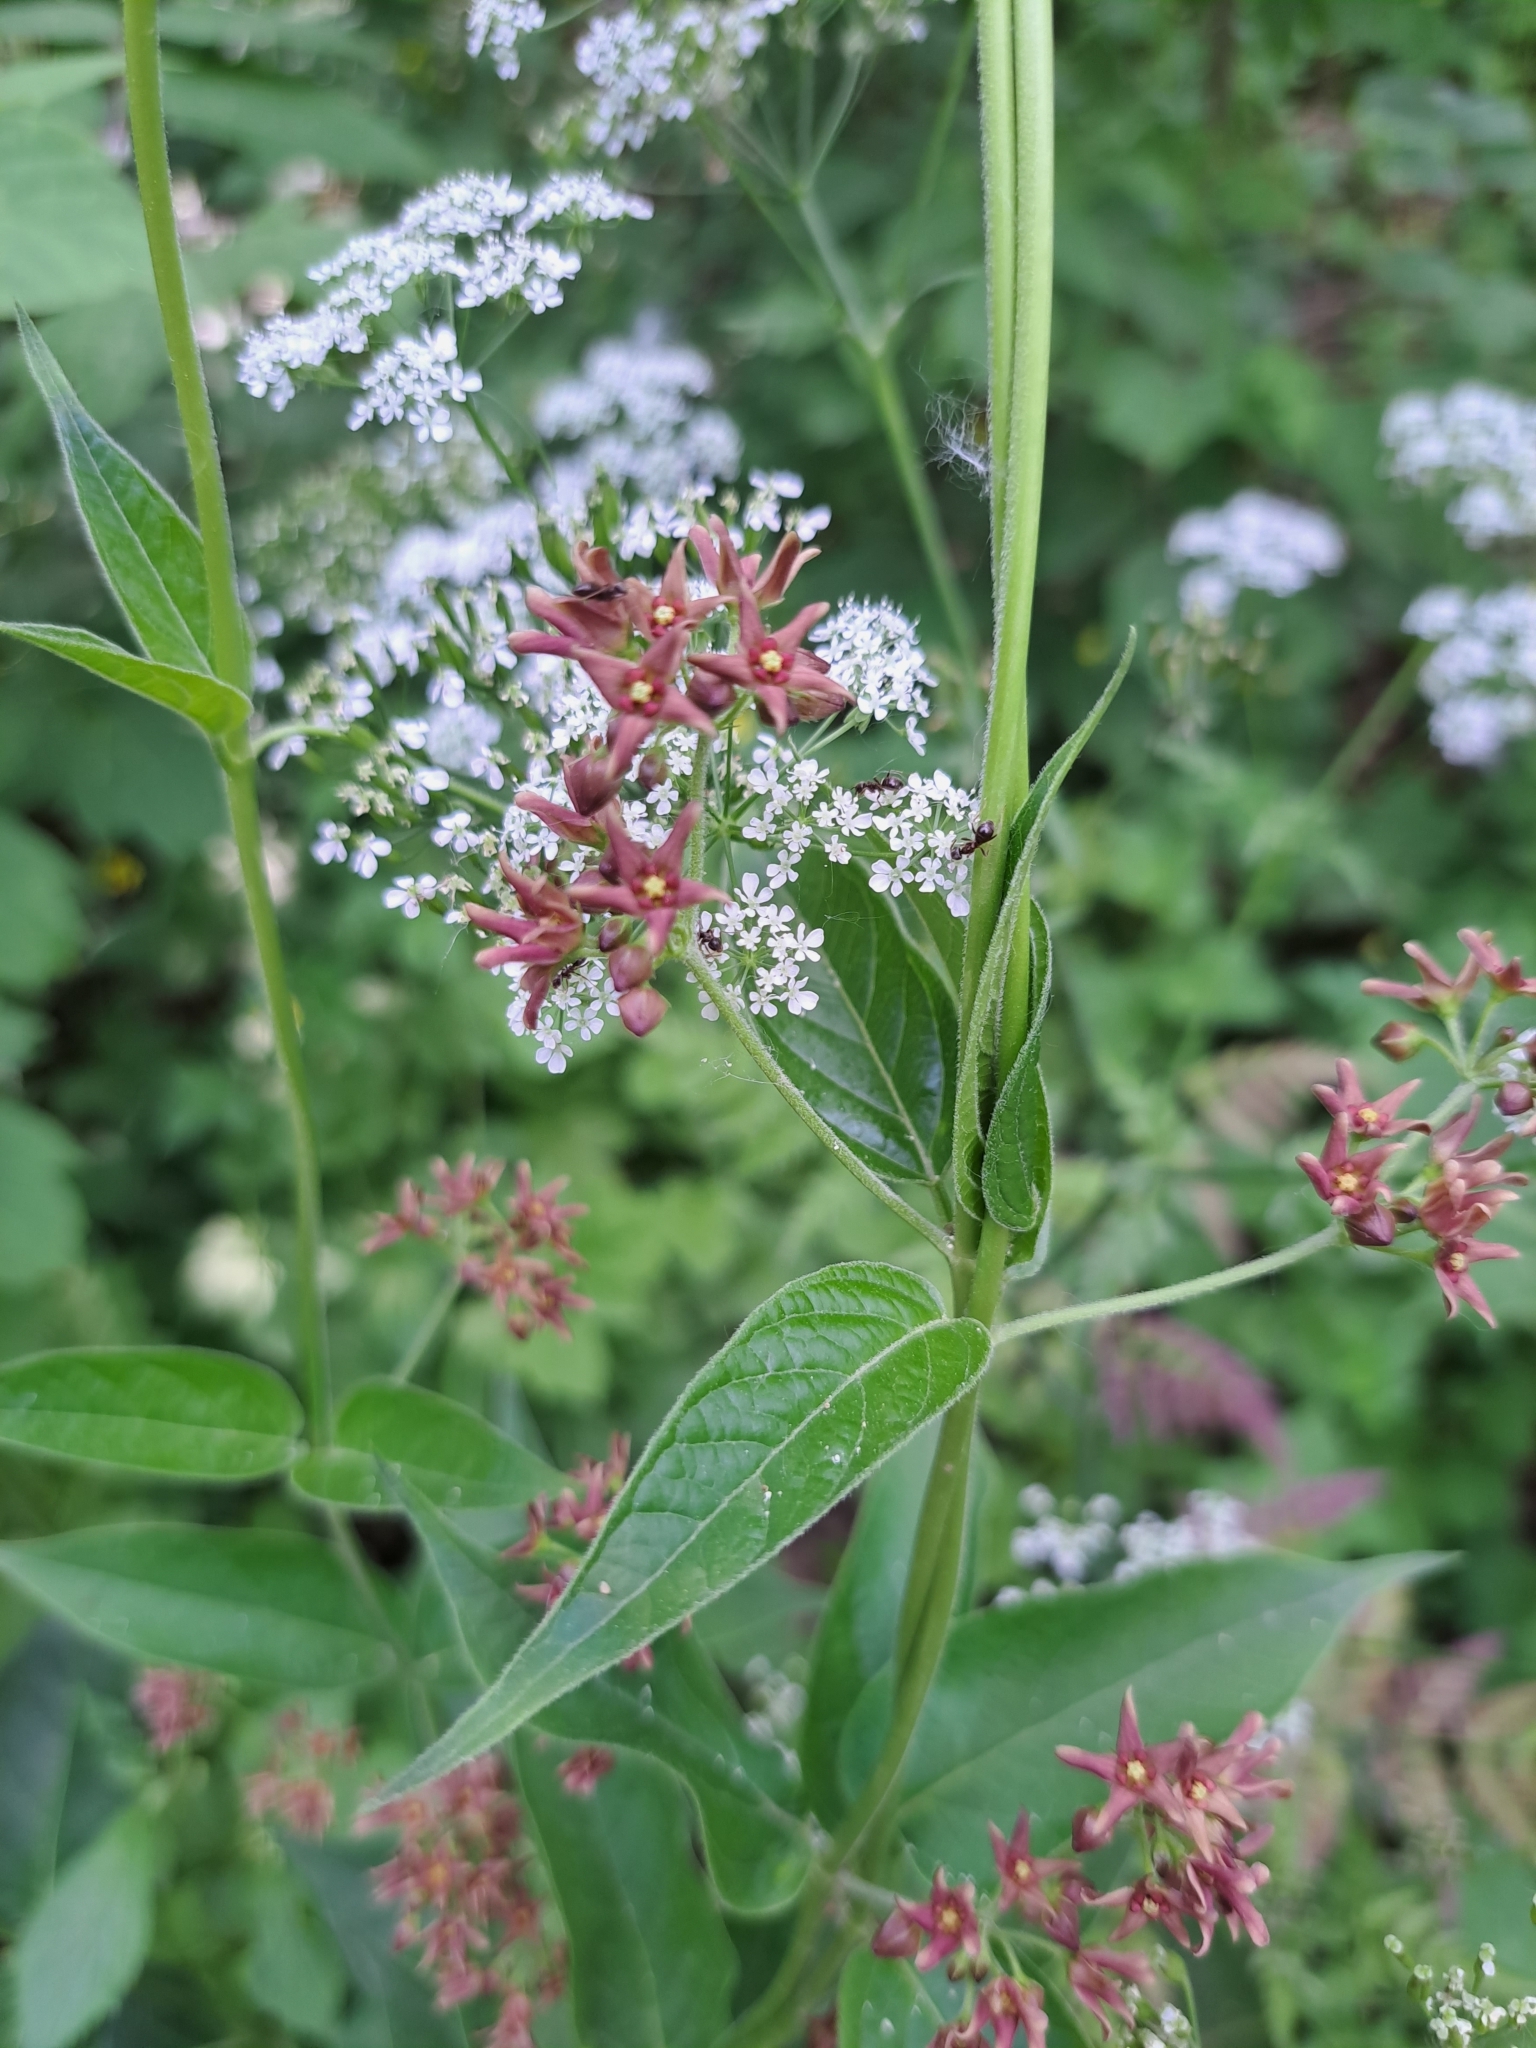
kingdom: Plantae
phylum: Tracheophyta
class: Magnoliopsida
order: Gentianales
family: Apocynaceae
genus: Vincetoxicum
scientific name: Vincetoxicum rossicum
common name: Dog-strangling vine
